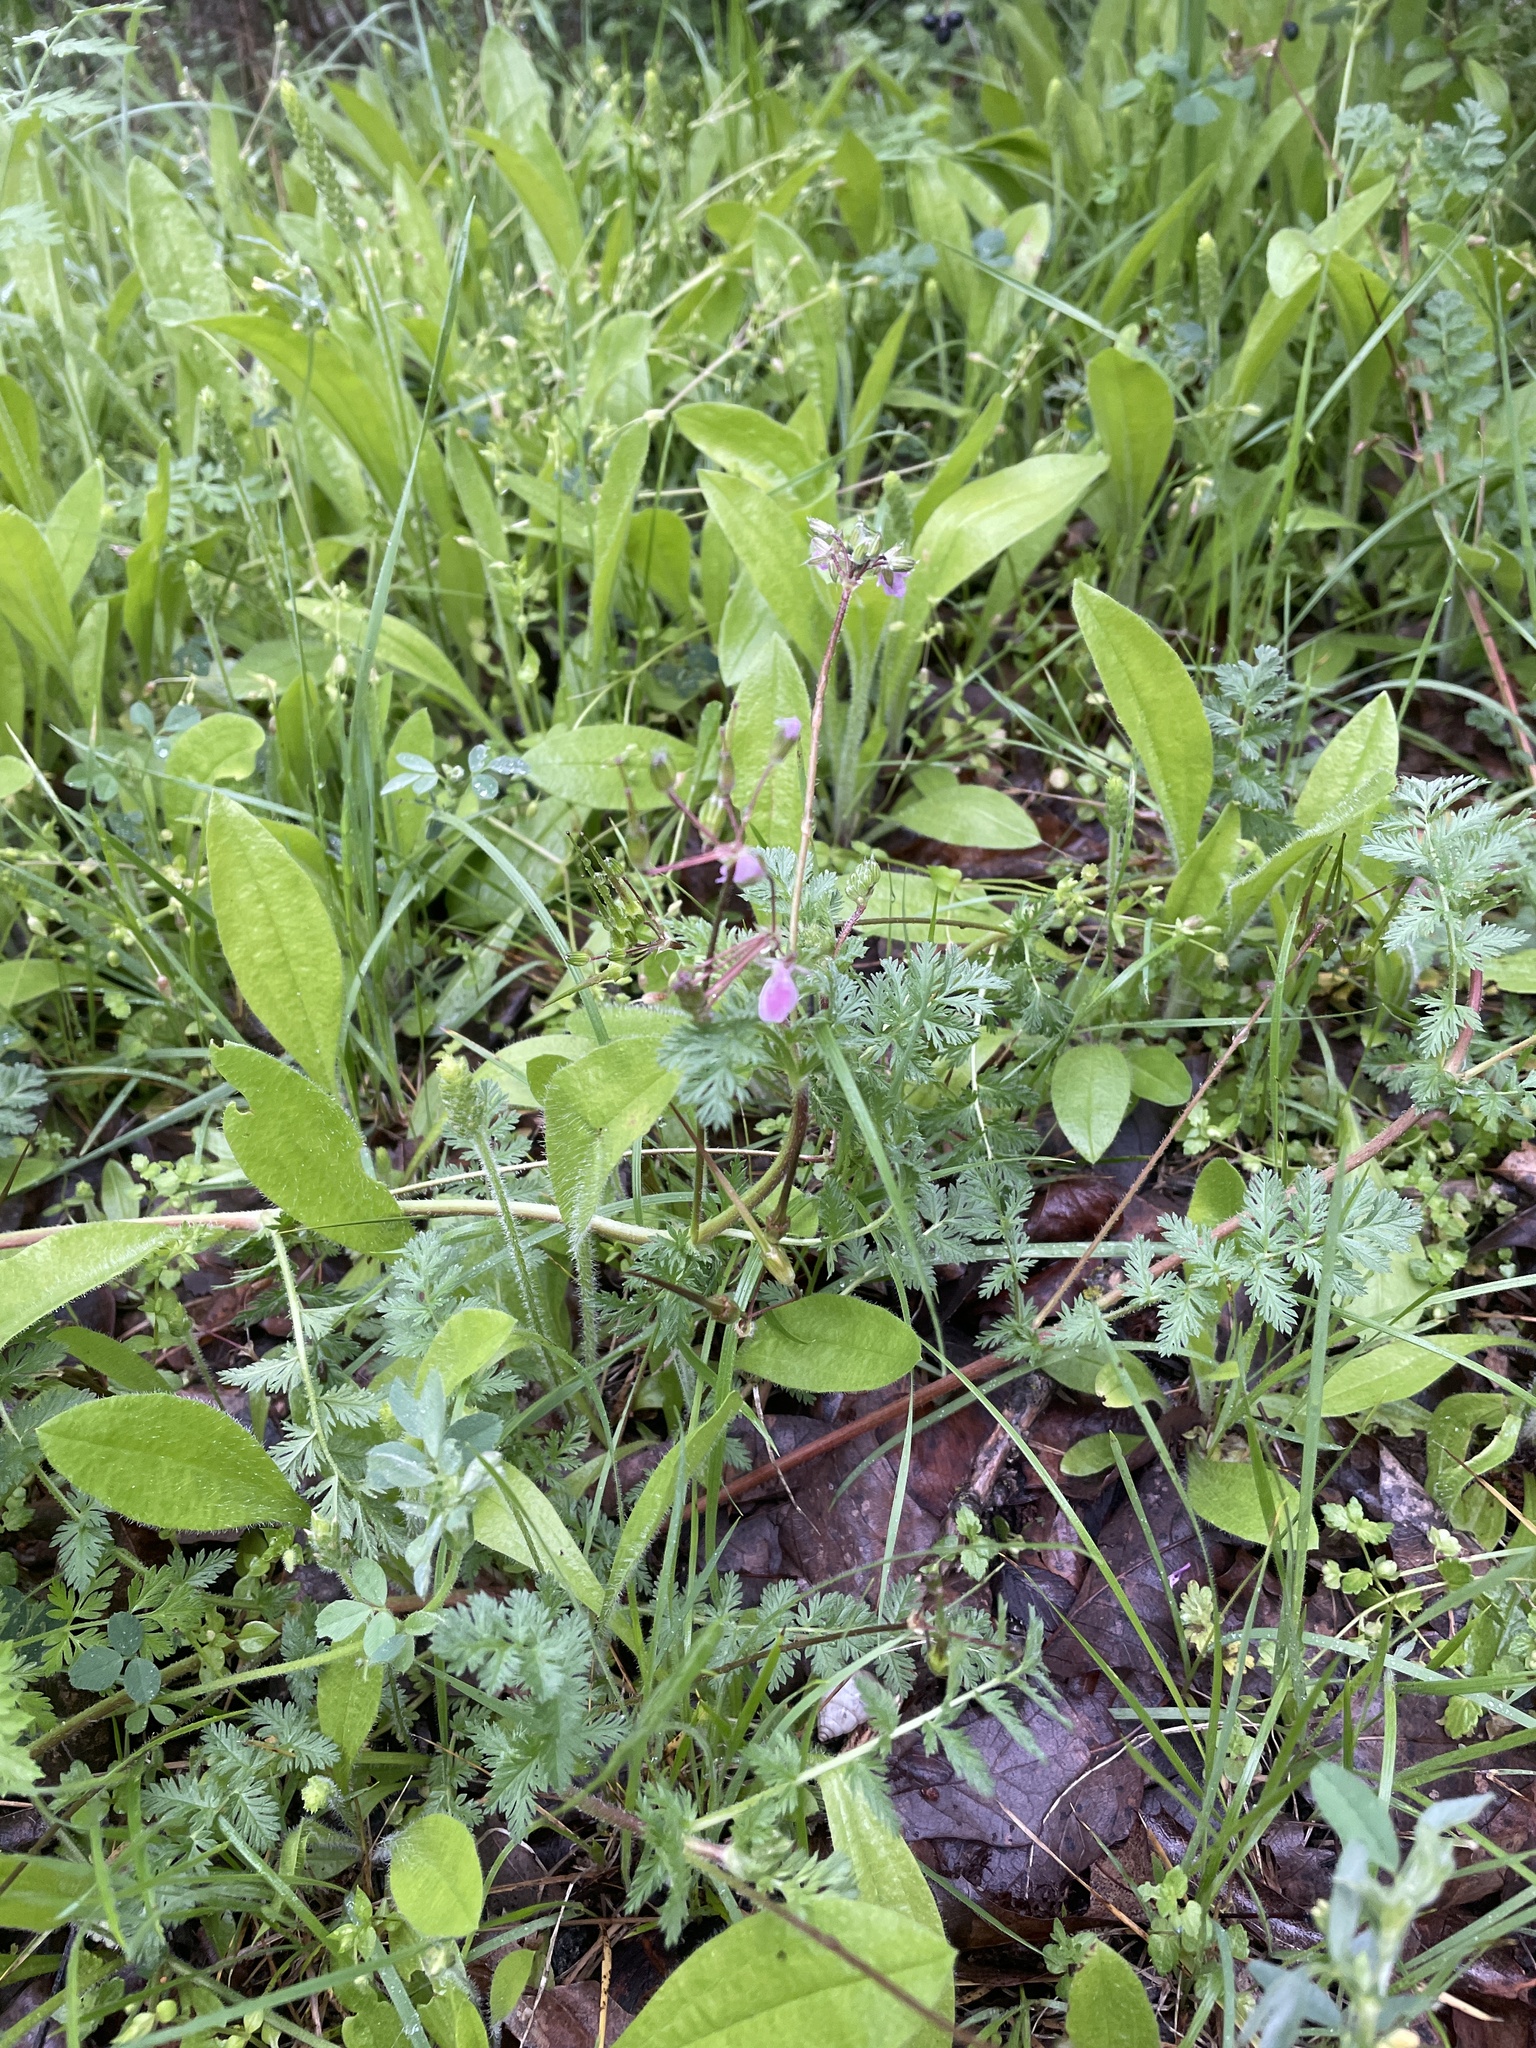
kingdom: Plantae
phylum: Tracheophyta
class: Magnoliopsida
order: Geraniales
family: Geraniaceae
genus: Erodium
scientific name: Erodium cicutarium
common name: Common stork's-bill
